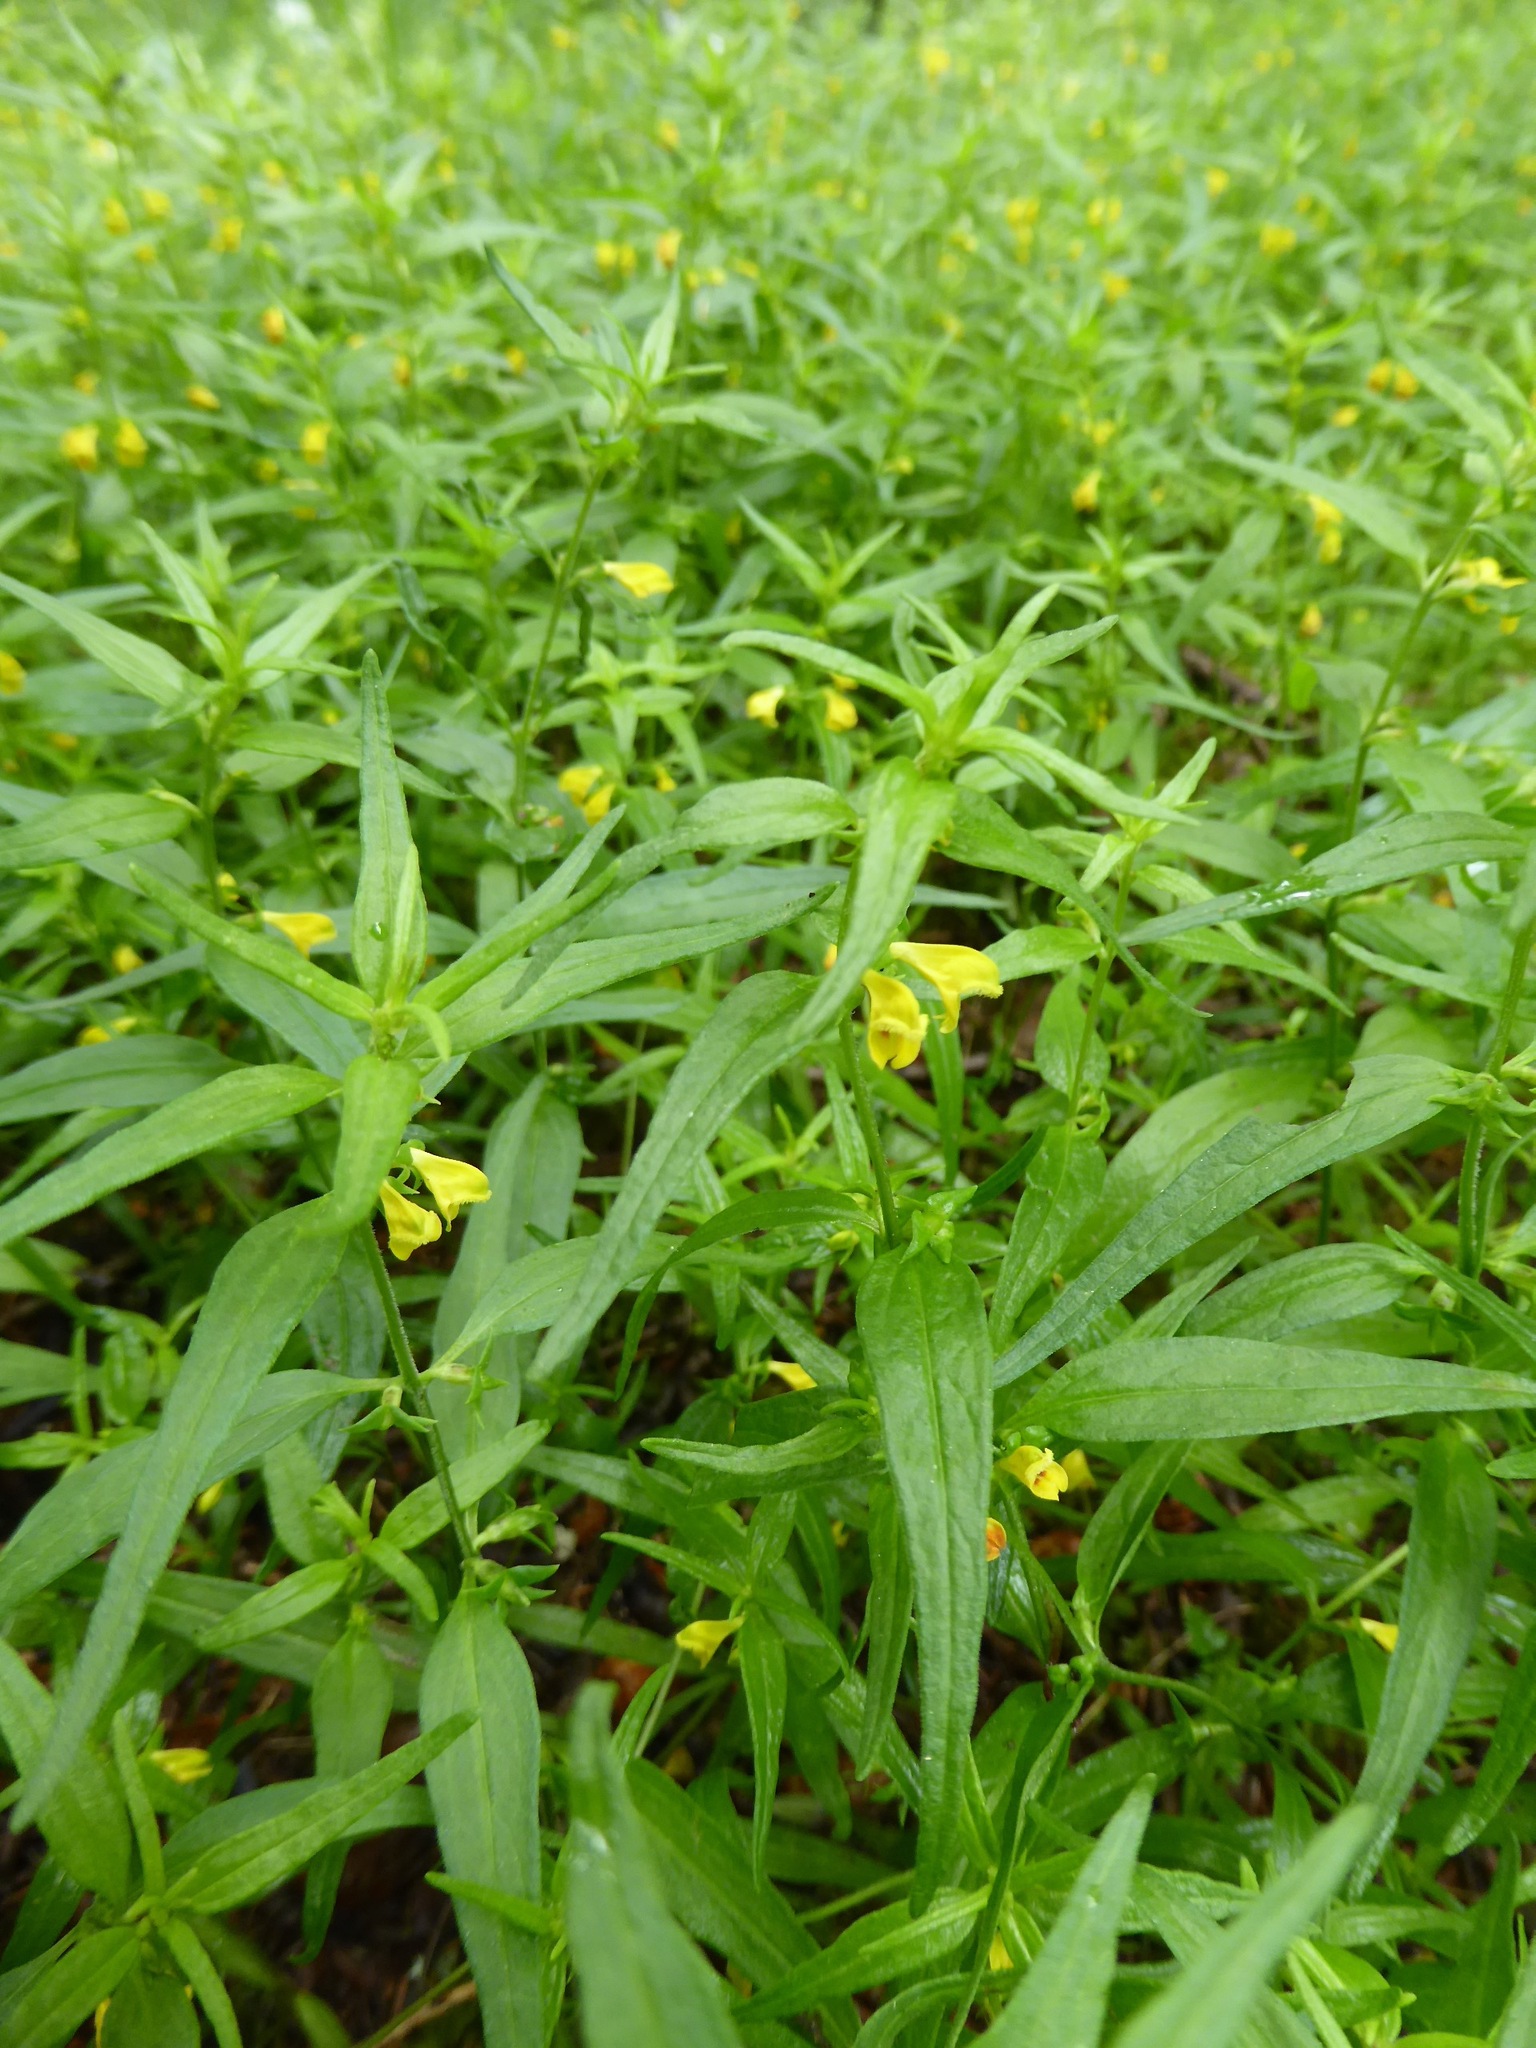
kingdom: Plantae
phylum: Tracheophyta
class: Magnoliopsida
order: Lamiales
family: Orobanchaceae
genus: Melampyrum
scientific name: Melampyrum sylvaticum
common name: Small cow-wheat
